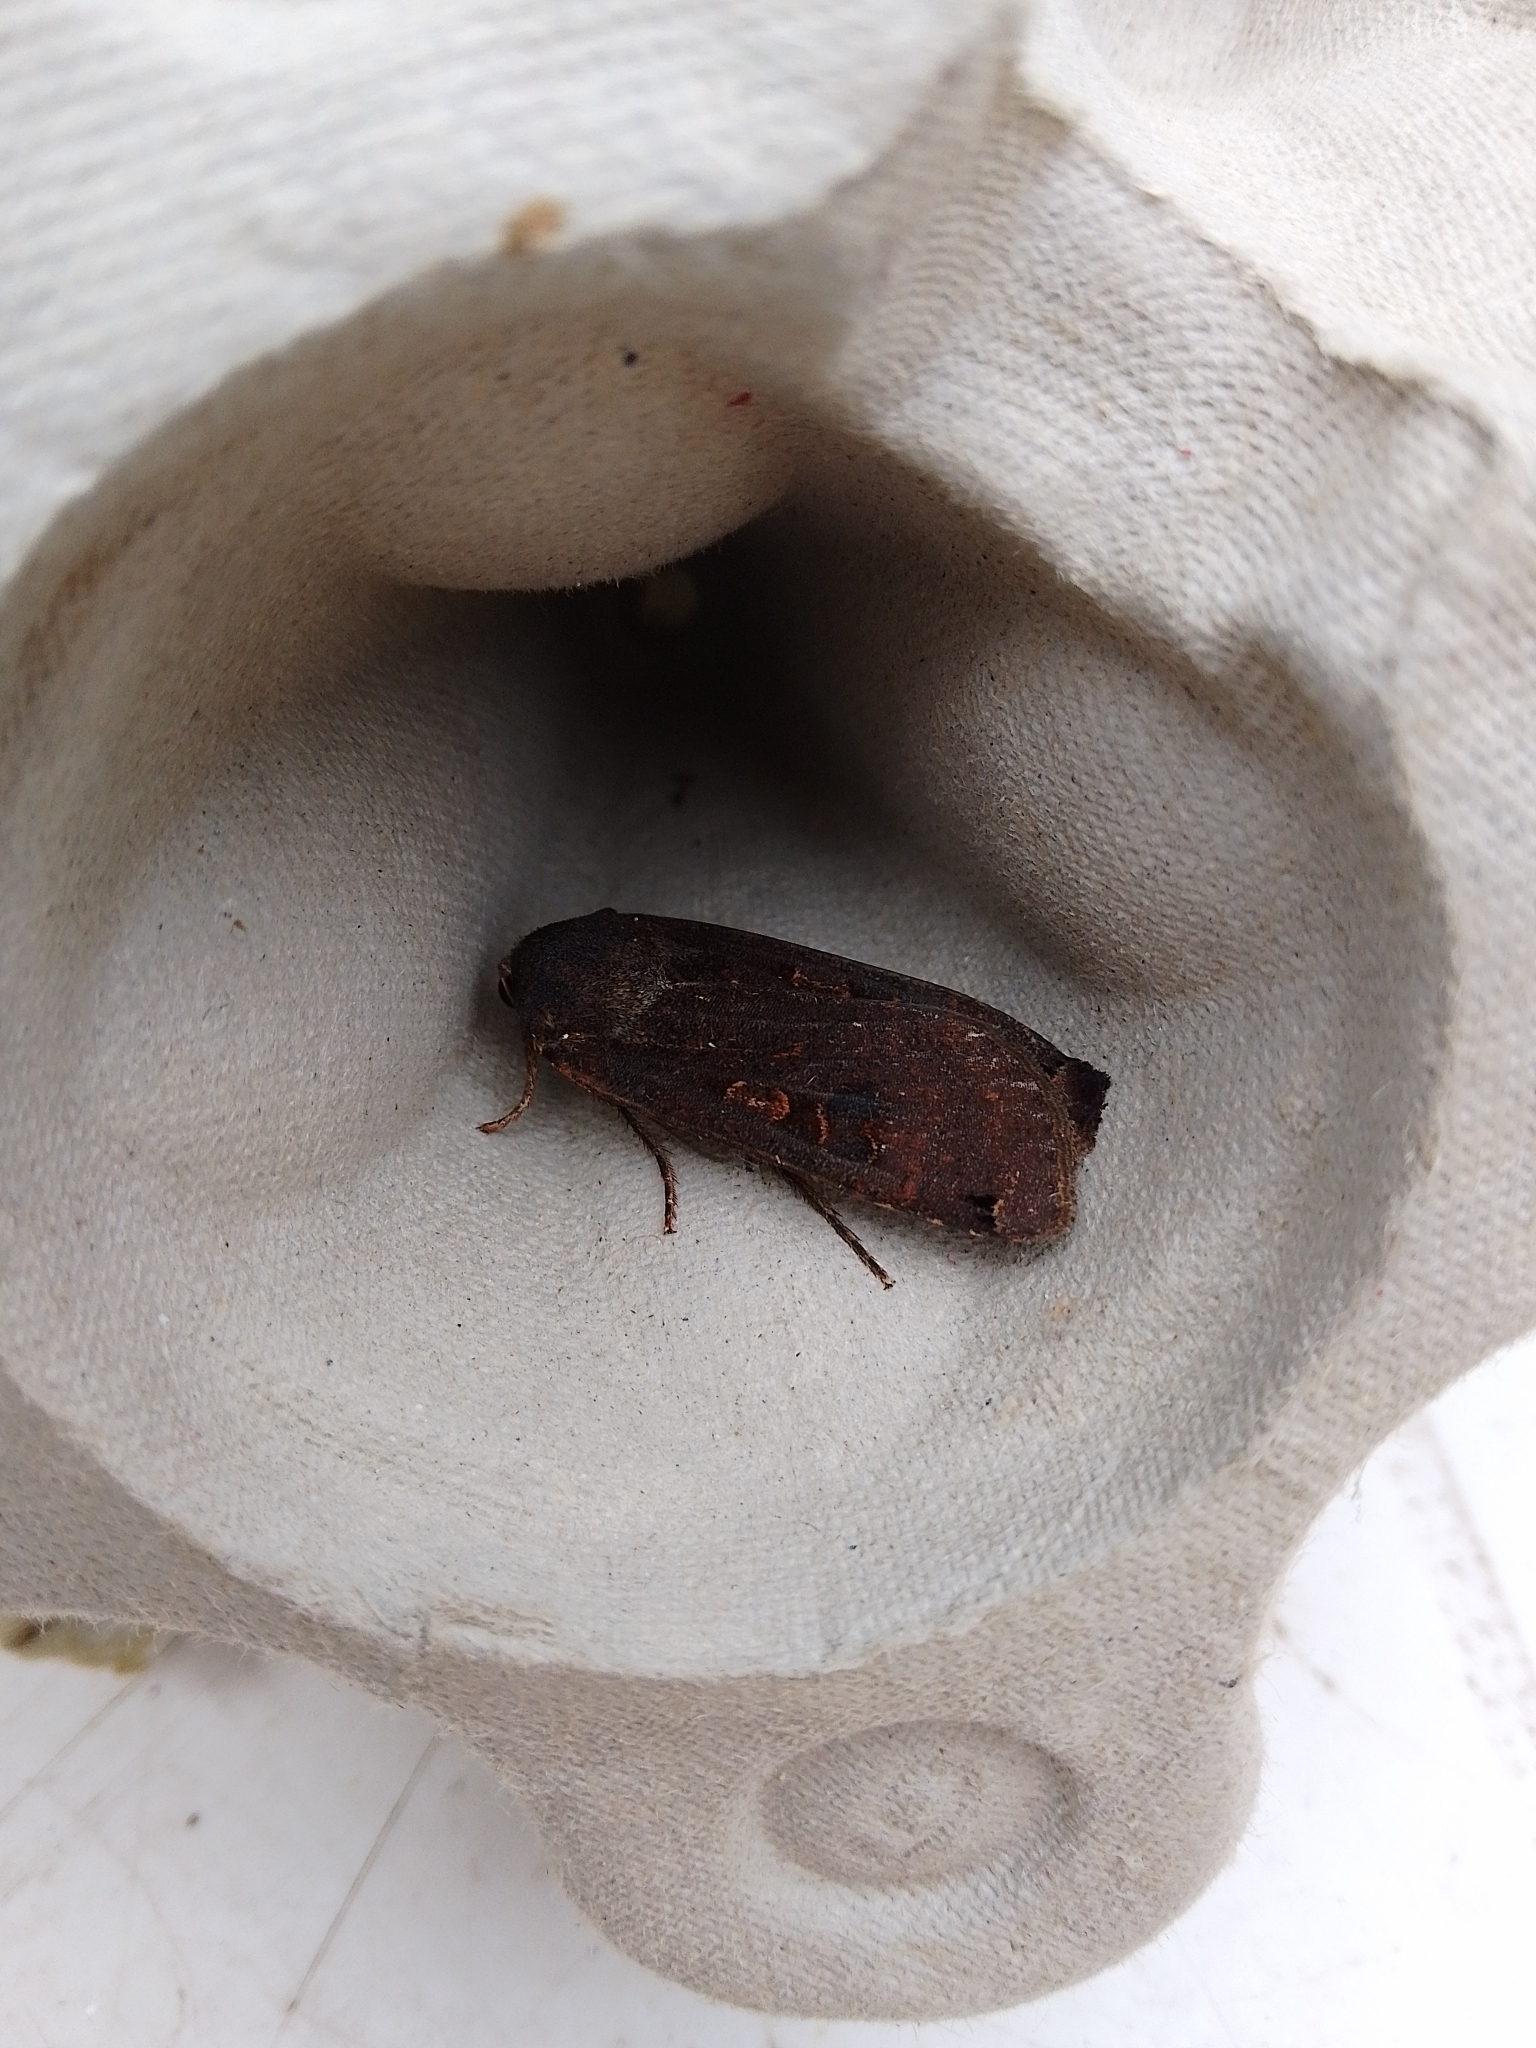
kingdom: Animalia
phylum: Arthropoda
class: Insecta
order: Lepidoptera
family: Noctuidae
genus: Noctua
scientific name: Noctua pronuba
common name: Large yellow underwing
